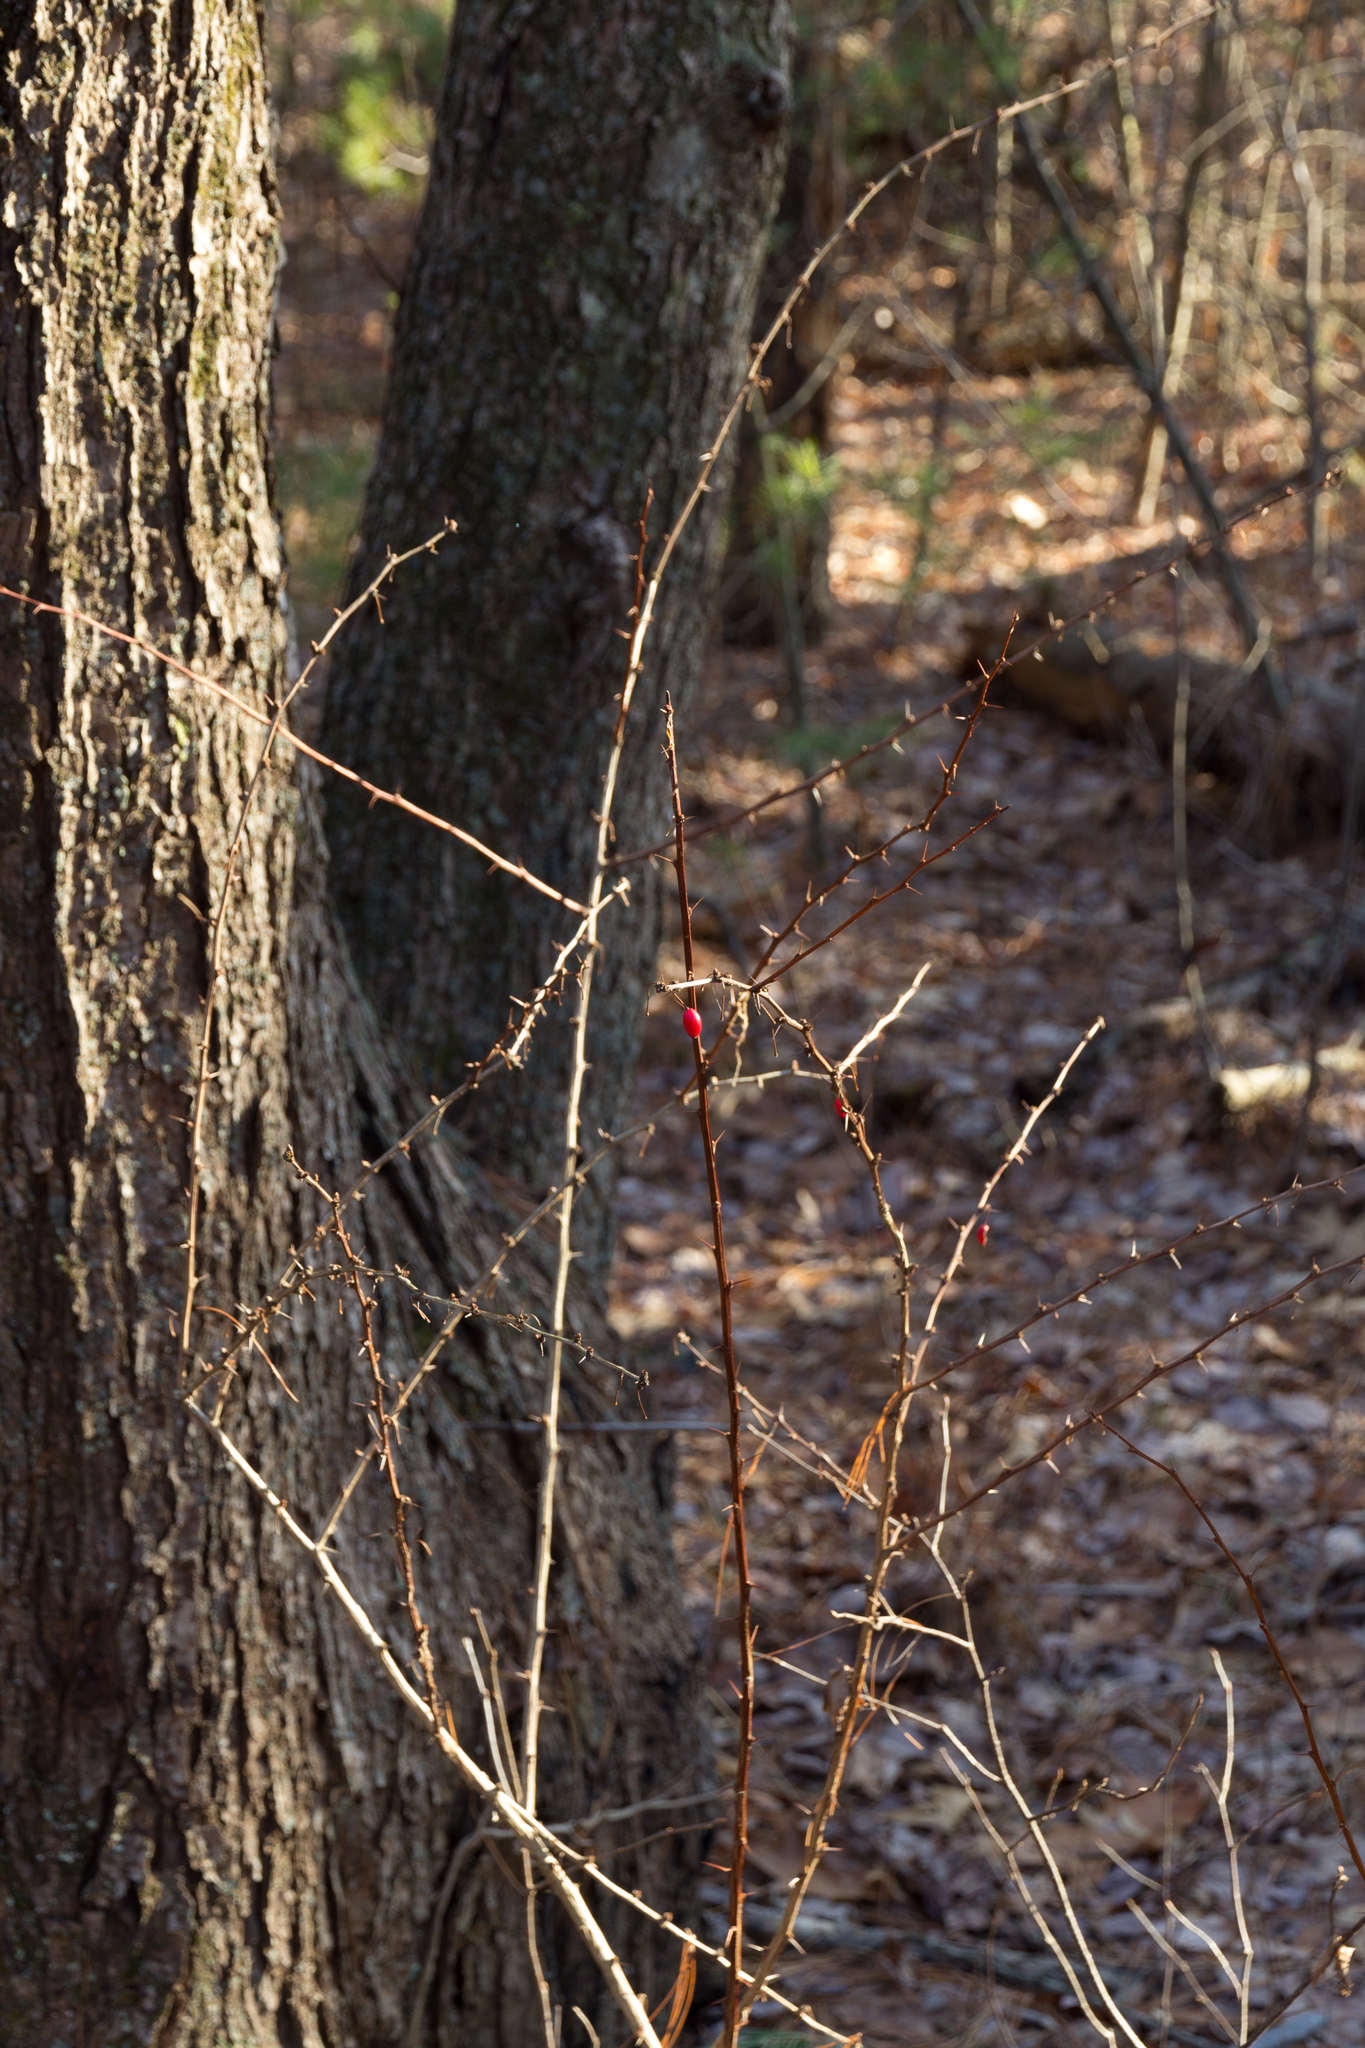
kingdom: Plantae
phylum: Tracheophyta
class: Magnoliopsida
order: Ranunculales
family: Berberidaceae
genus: Berberis
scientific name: Berberis thunbergii
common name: Japanese barberry
